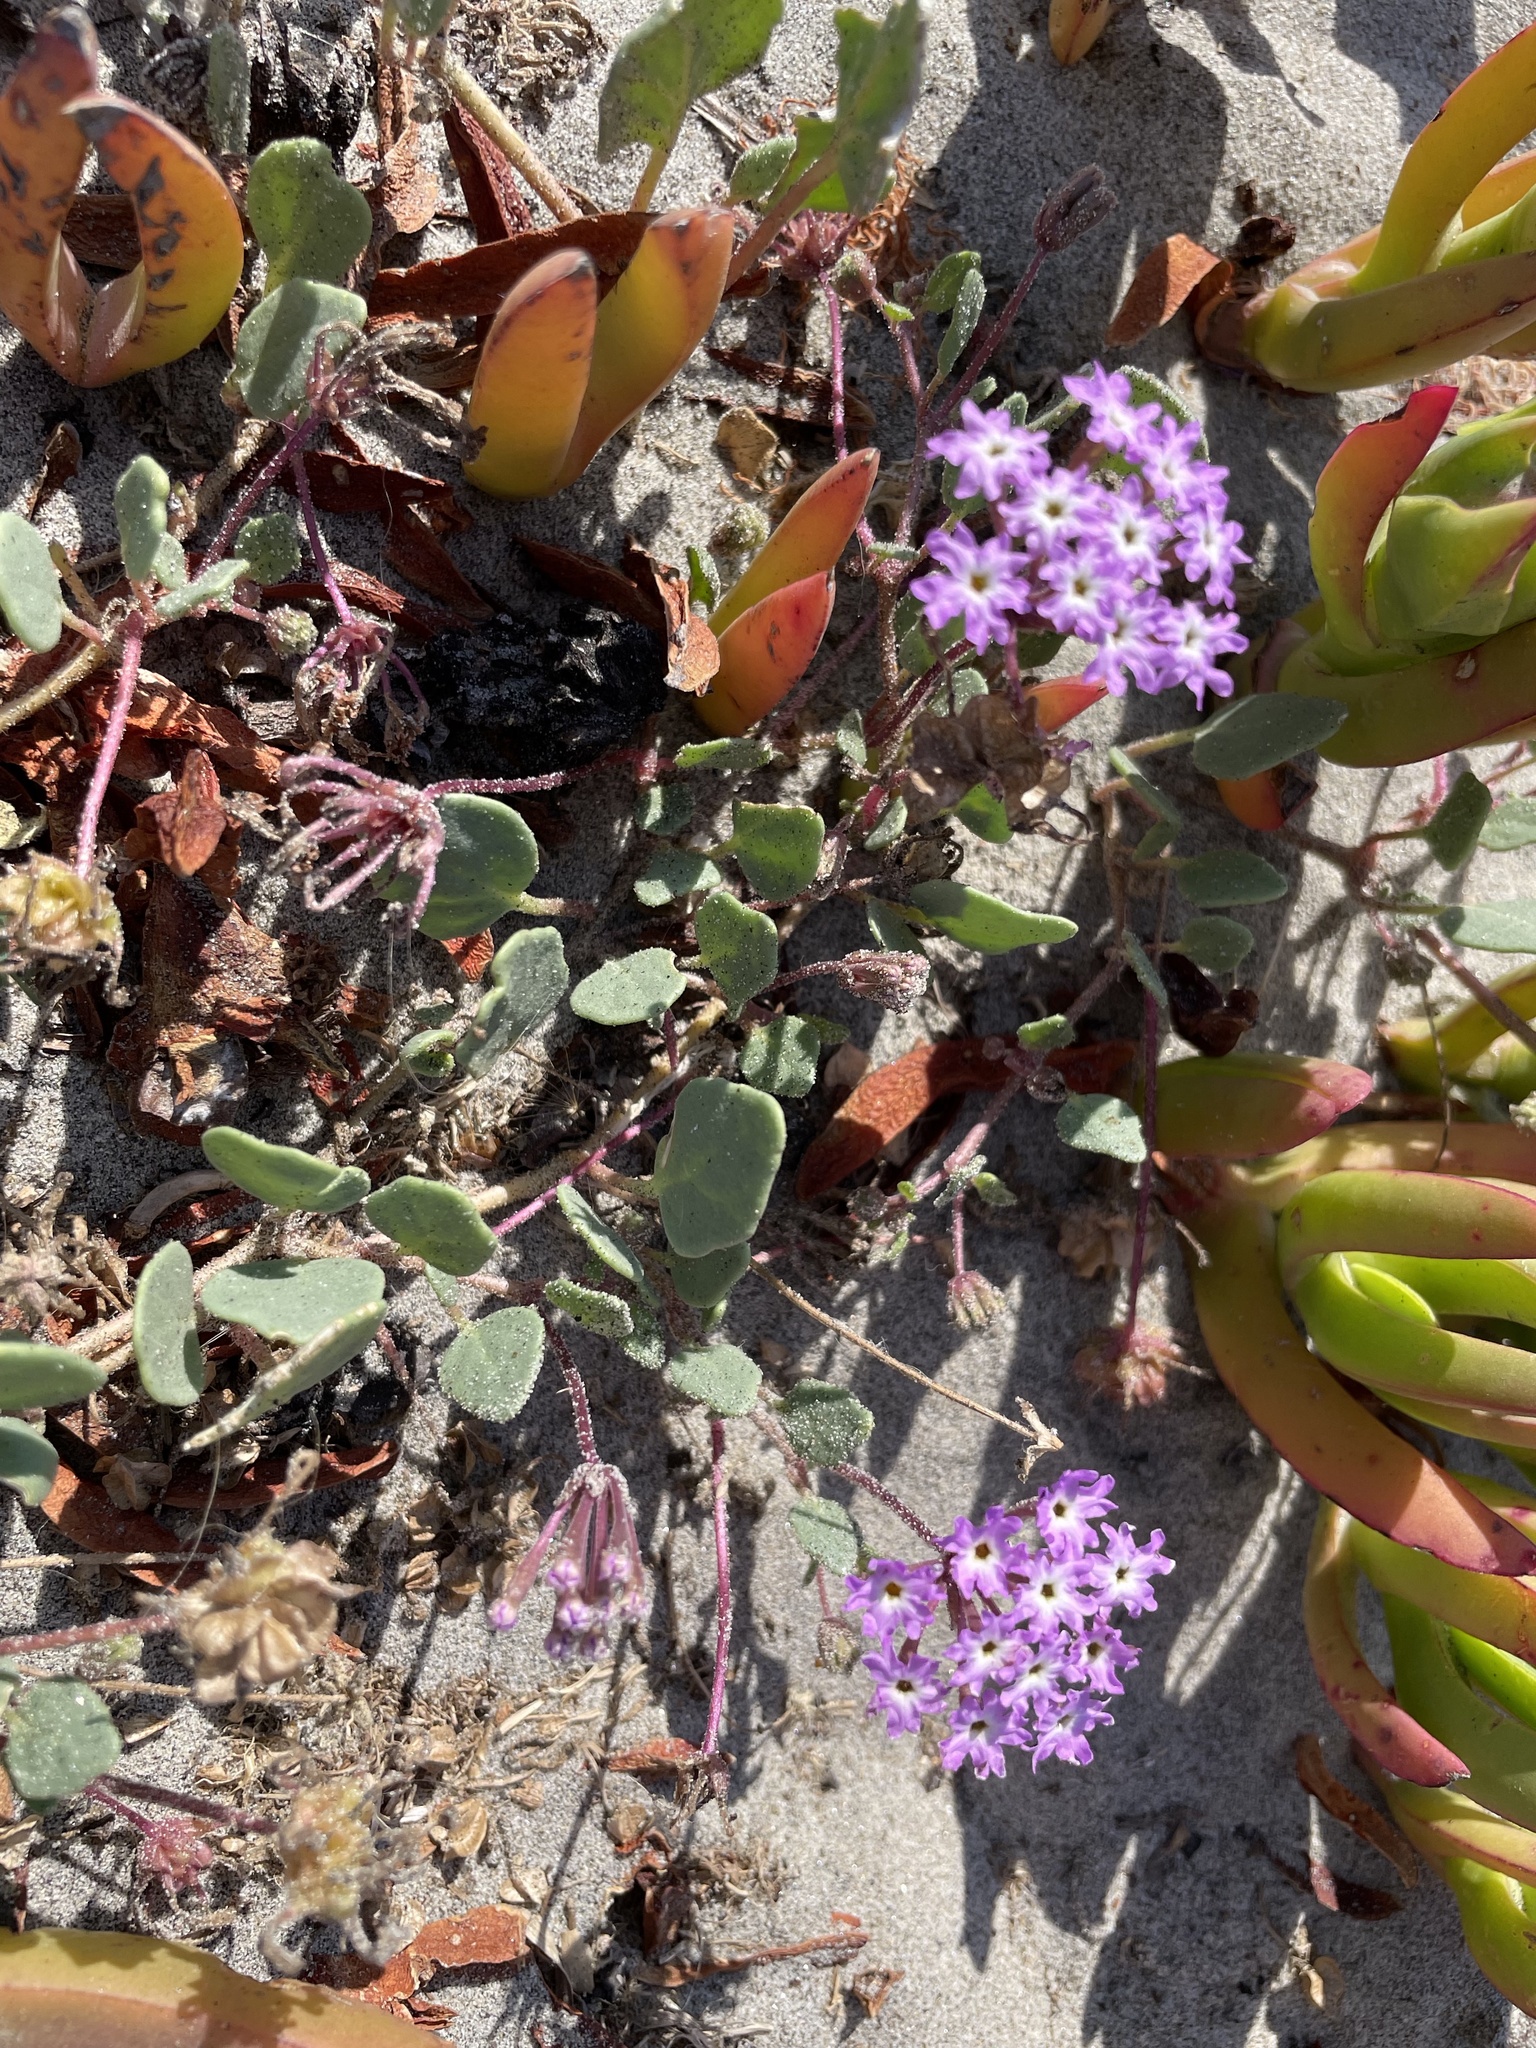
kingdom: Plantae
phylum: Tracheophyta
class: Magnoliopsida
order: Caryophyllales
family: Nyctaginaceae
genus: Abronia
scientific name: Abronia umbellata
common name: Sand-verbena
